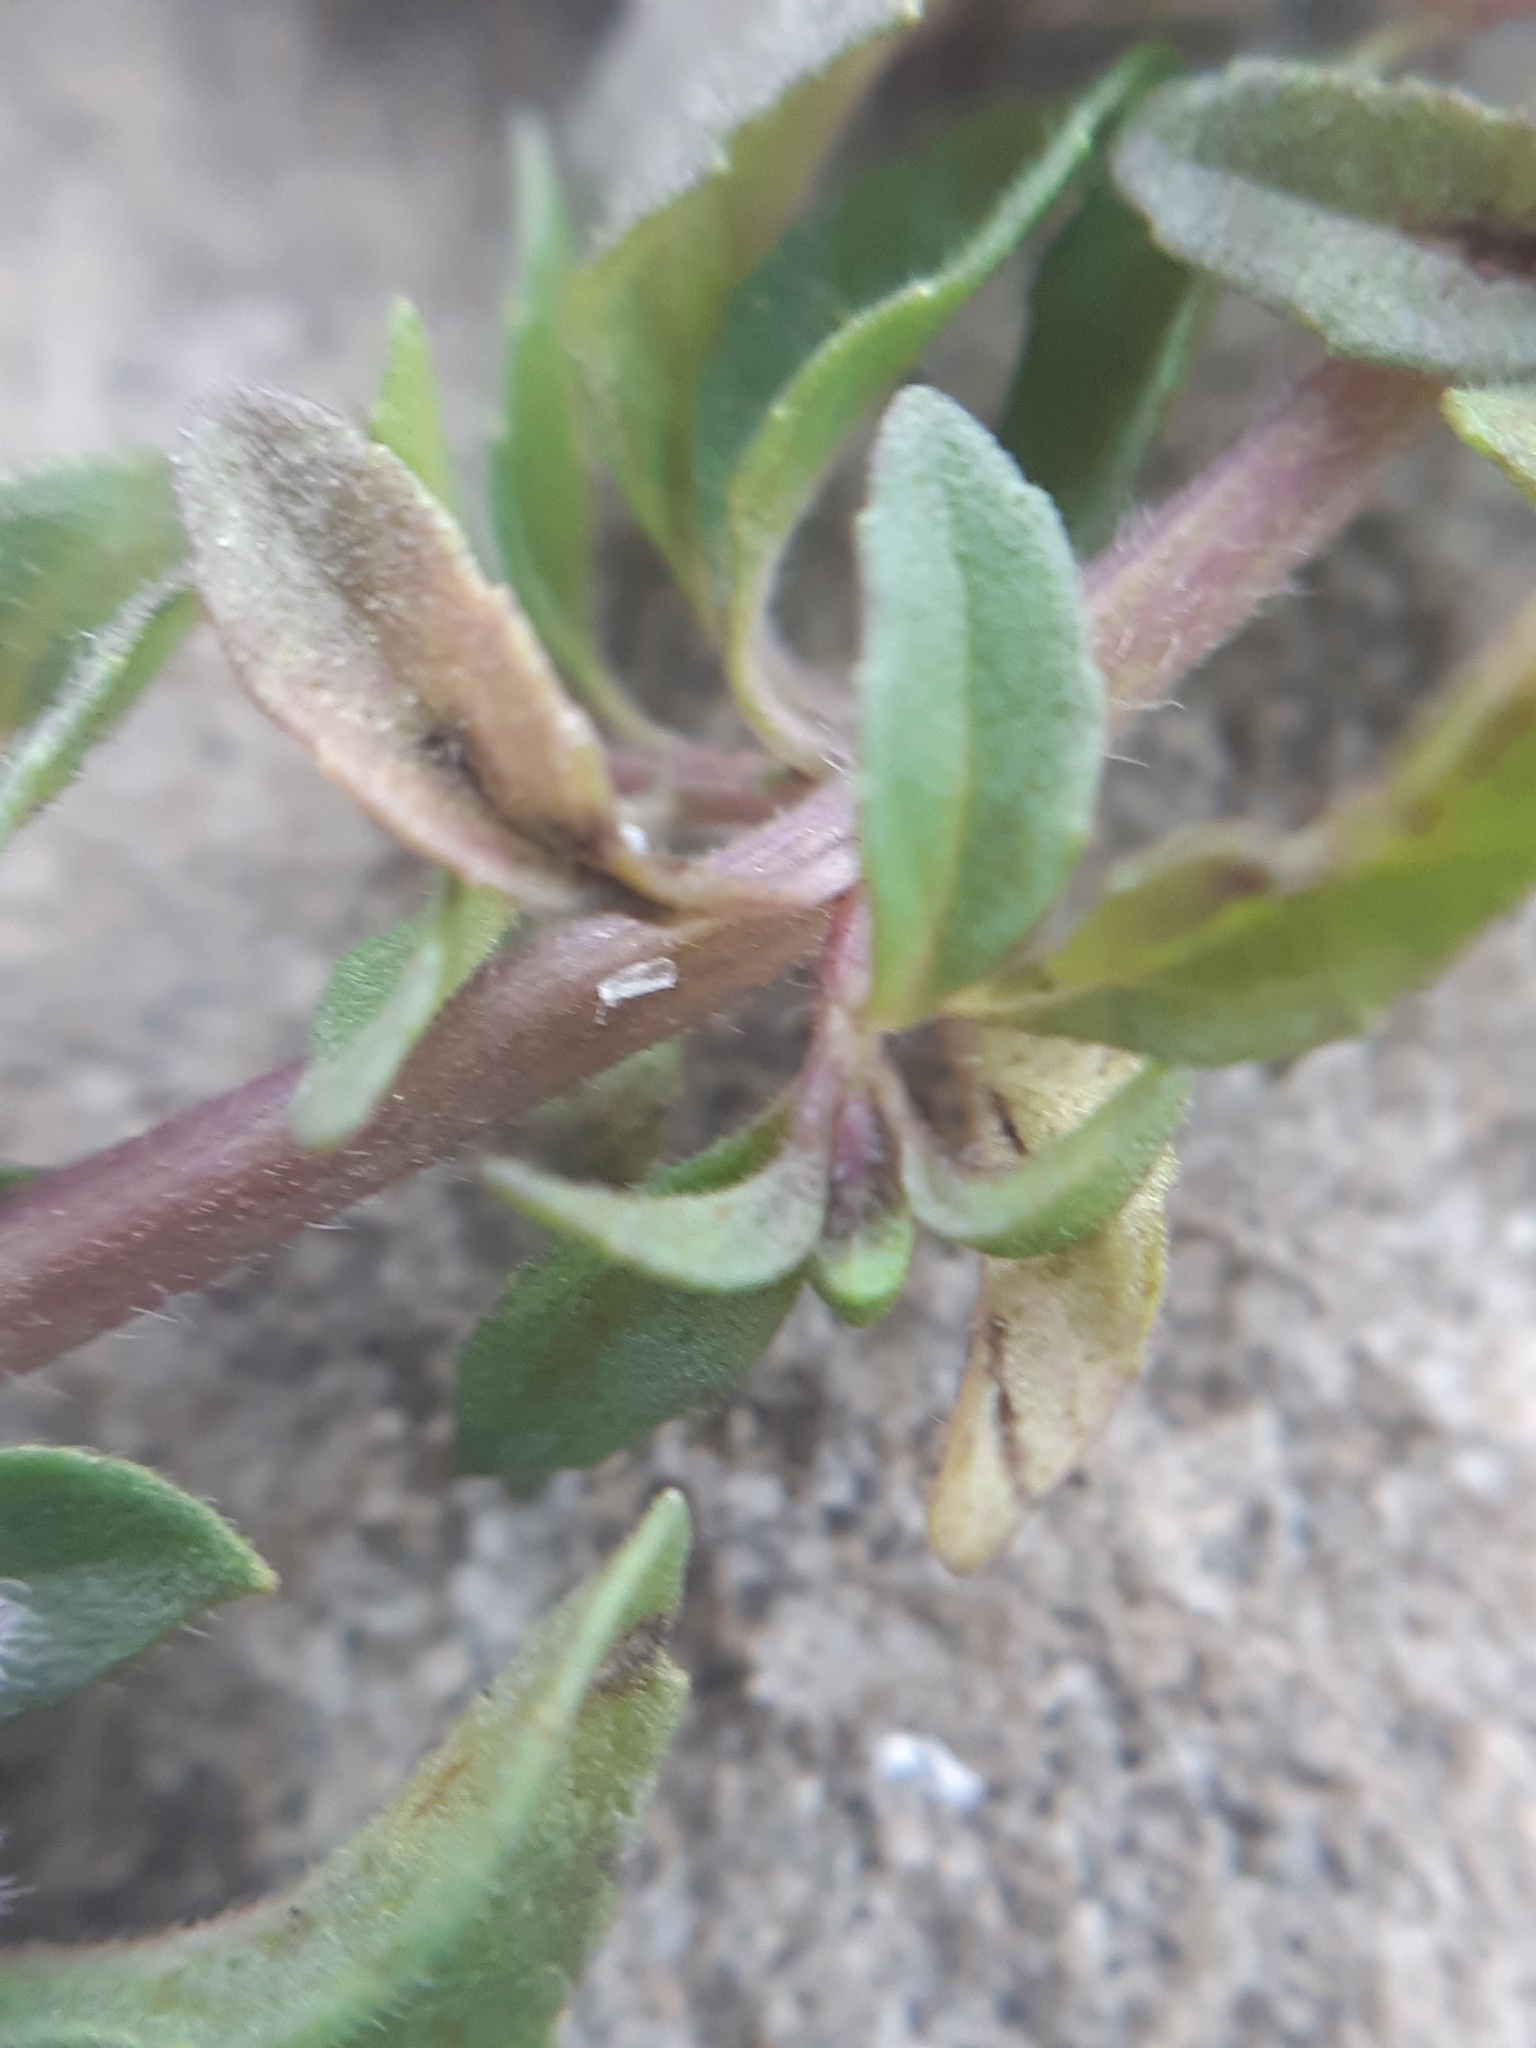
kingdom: Plantae
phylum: Tracheophyta
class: Magnoliopsida
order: Lamiales
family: Lamiaceae
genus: Mentha
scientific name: Mentha pulegium
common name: Pennyroyal
